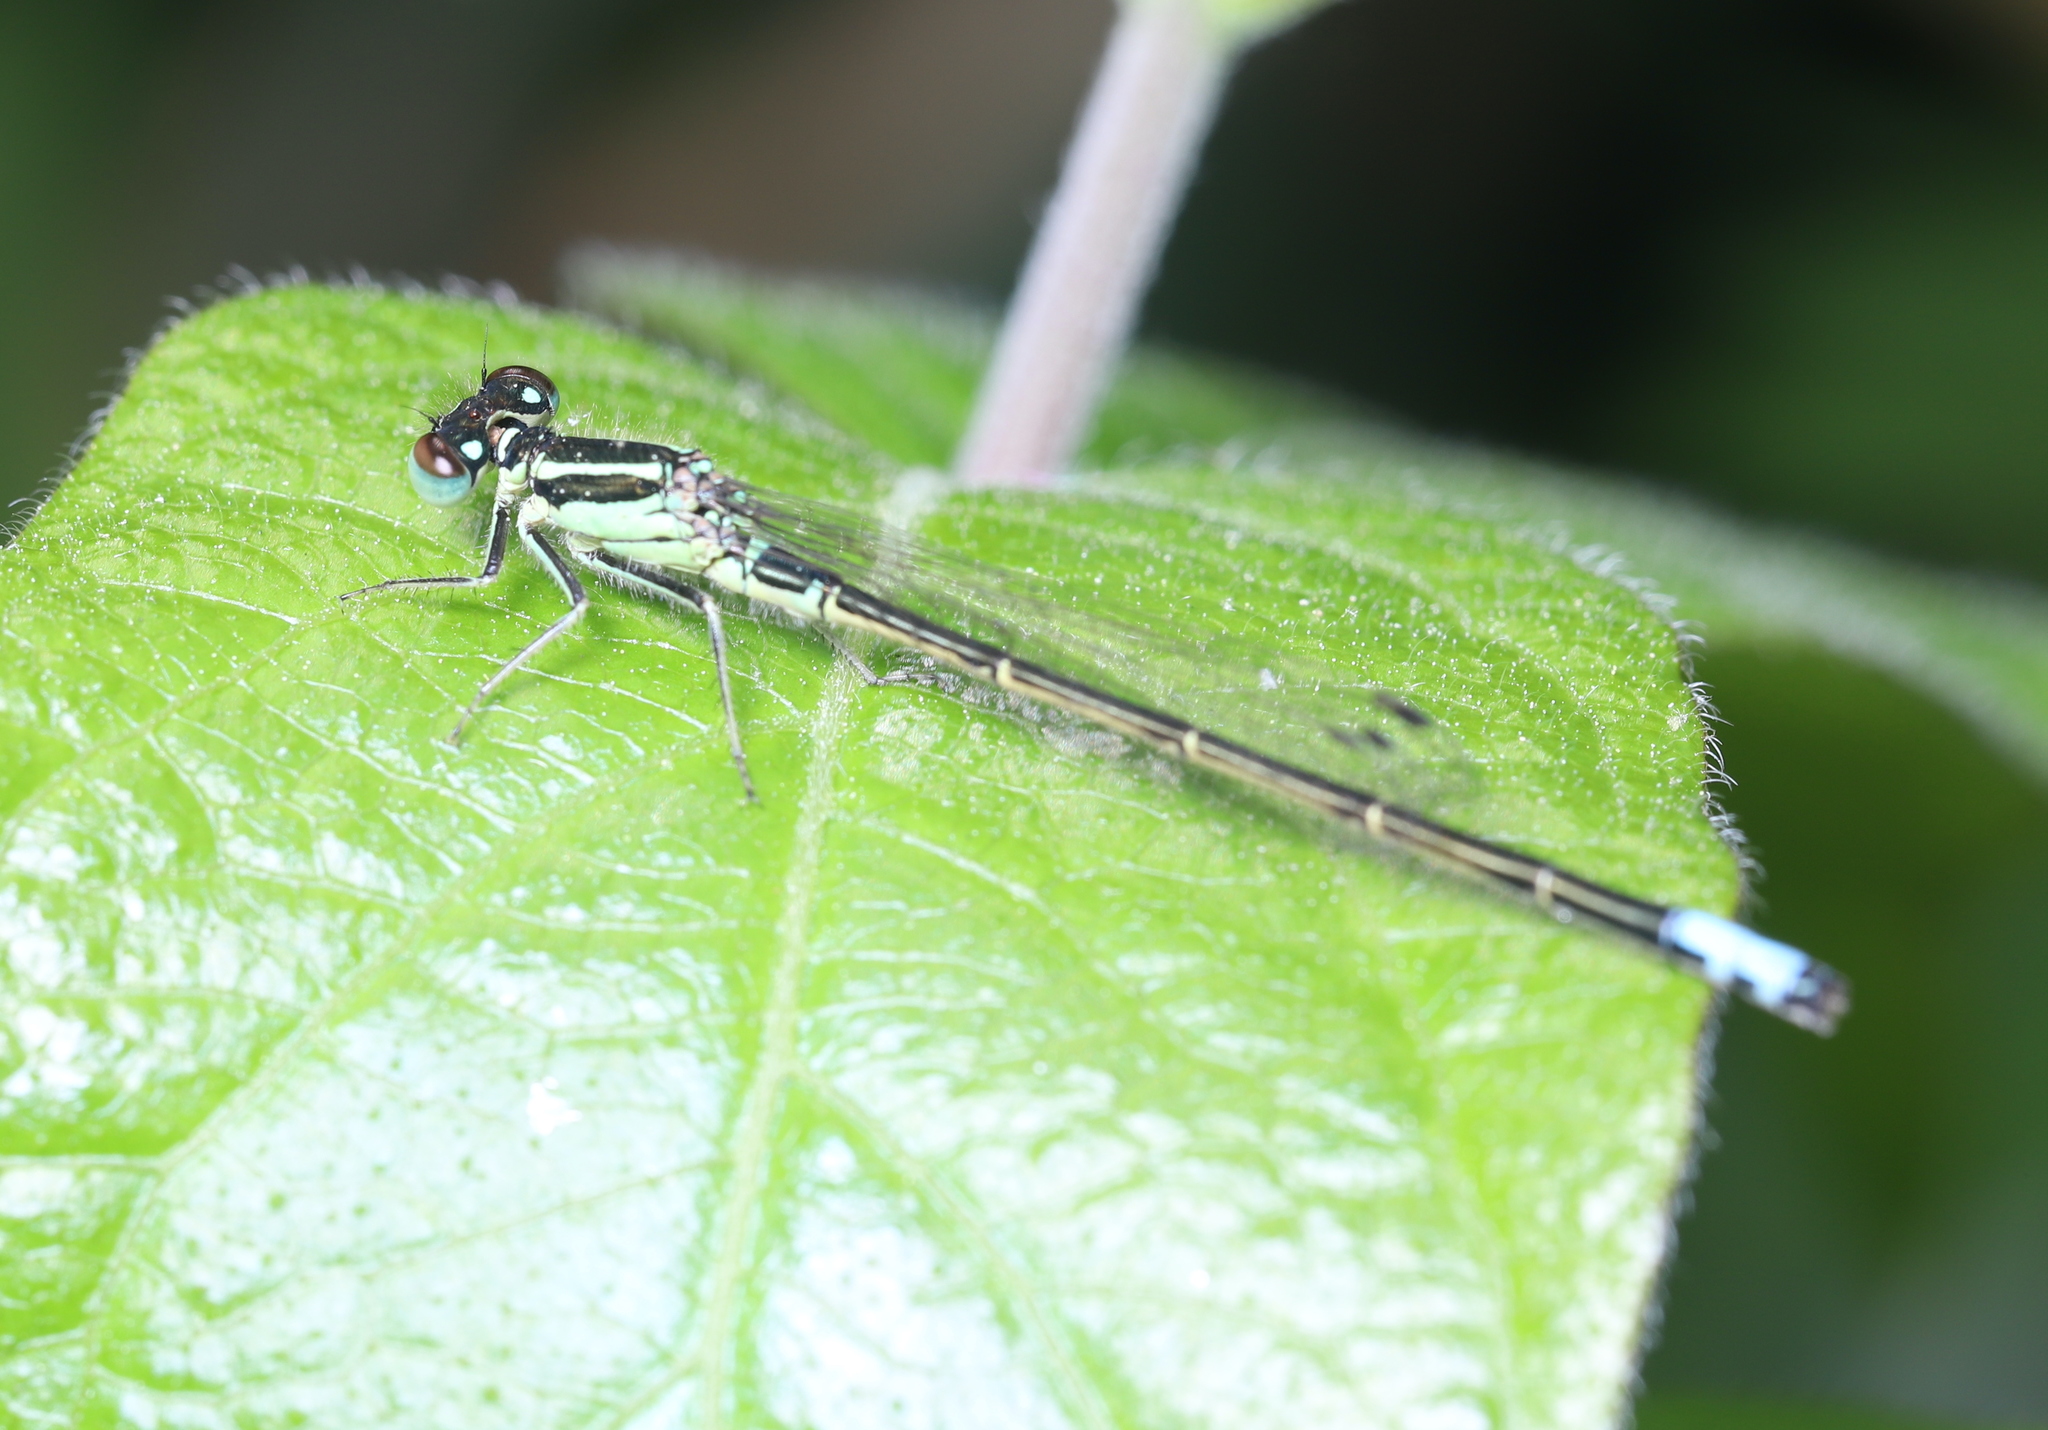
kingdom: Animalia
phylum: Arthropoda
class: Insecta
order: Odonata
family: Coenagrionidae
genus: Ischnura
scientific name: Ischnura verticalis
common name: Eastern forktail
